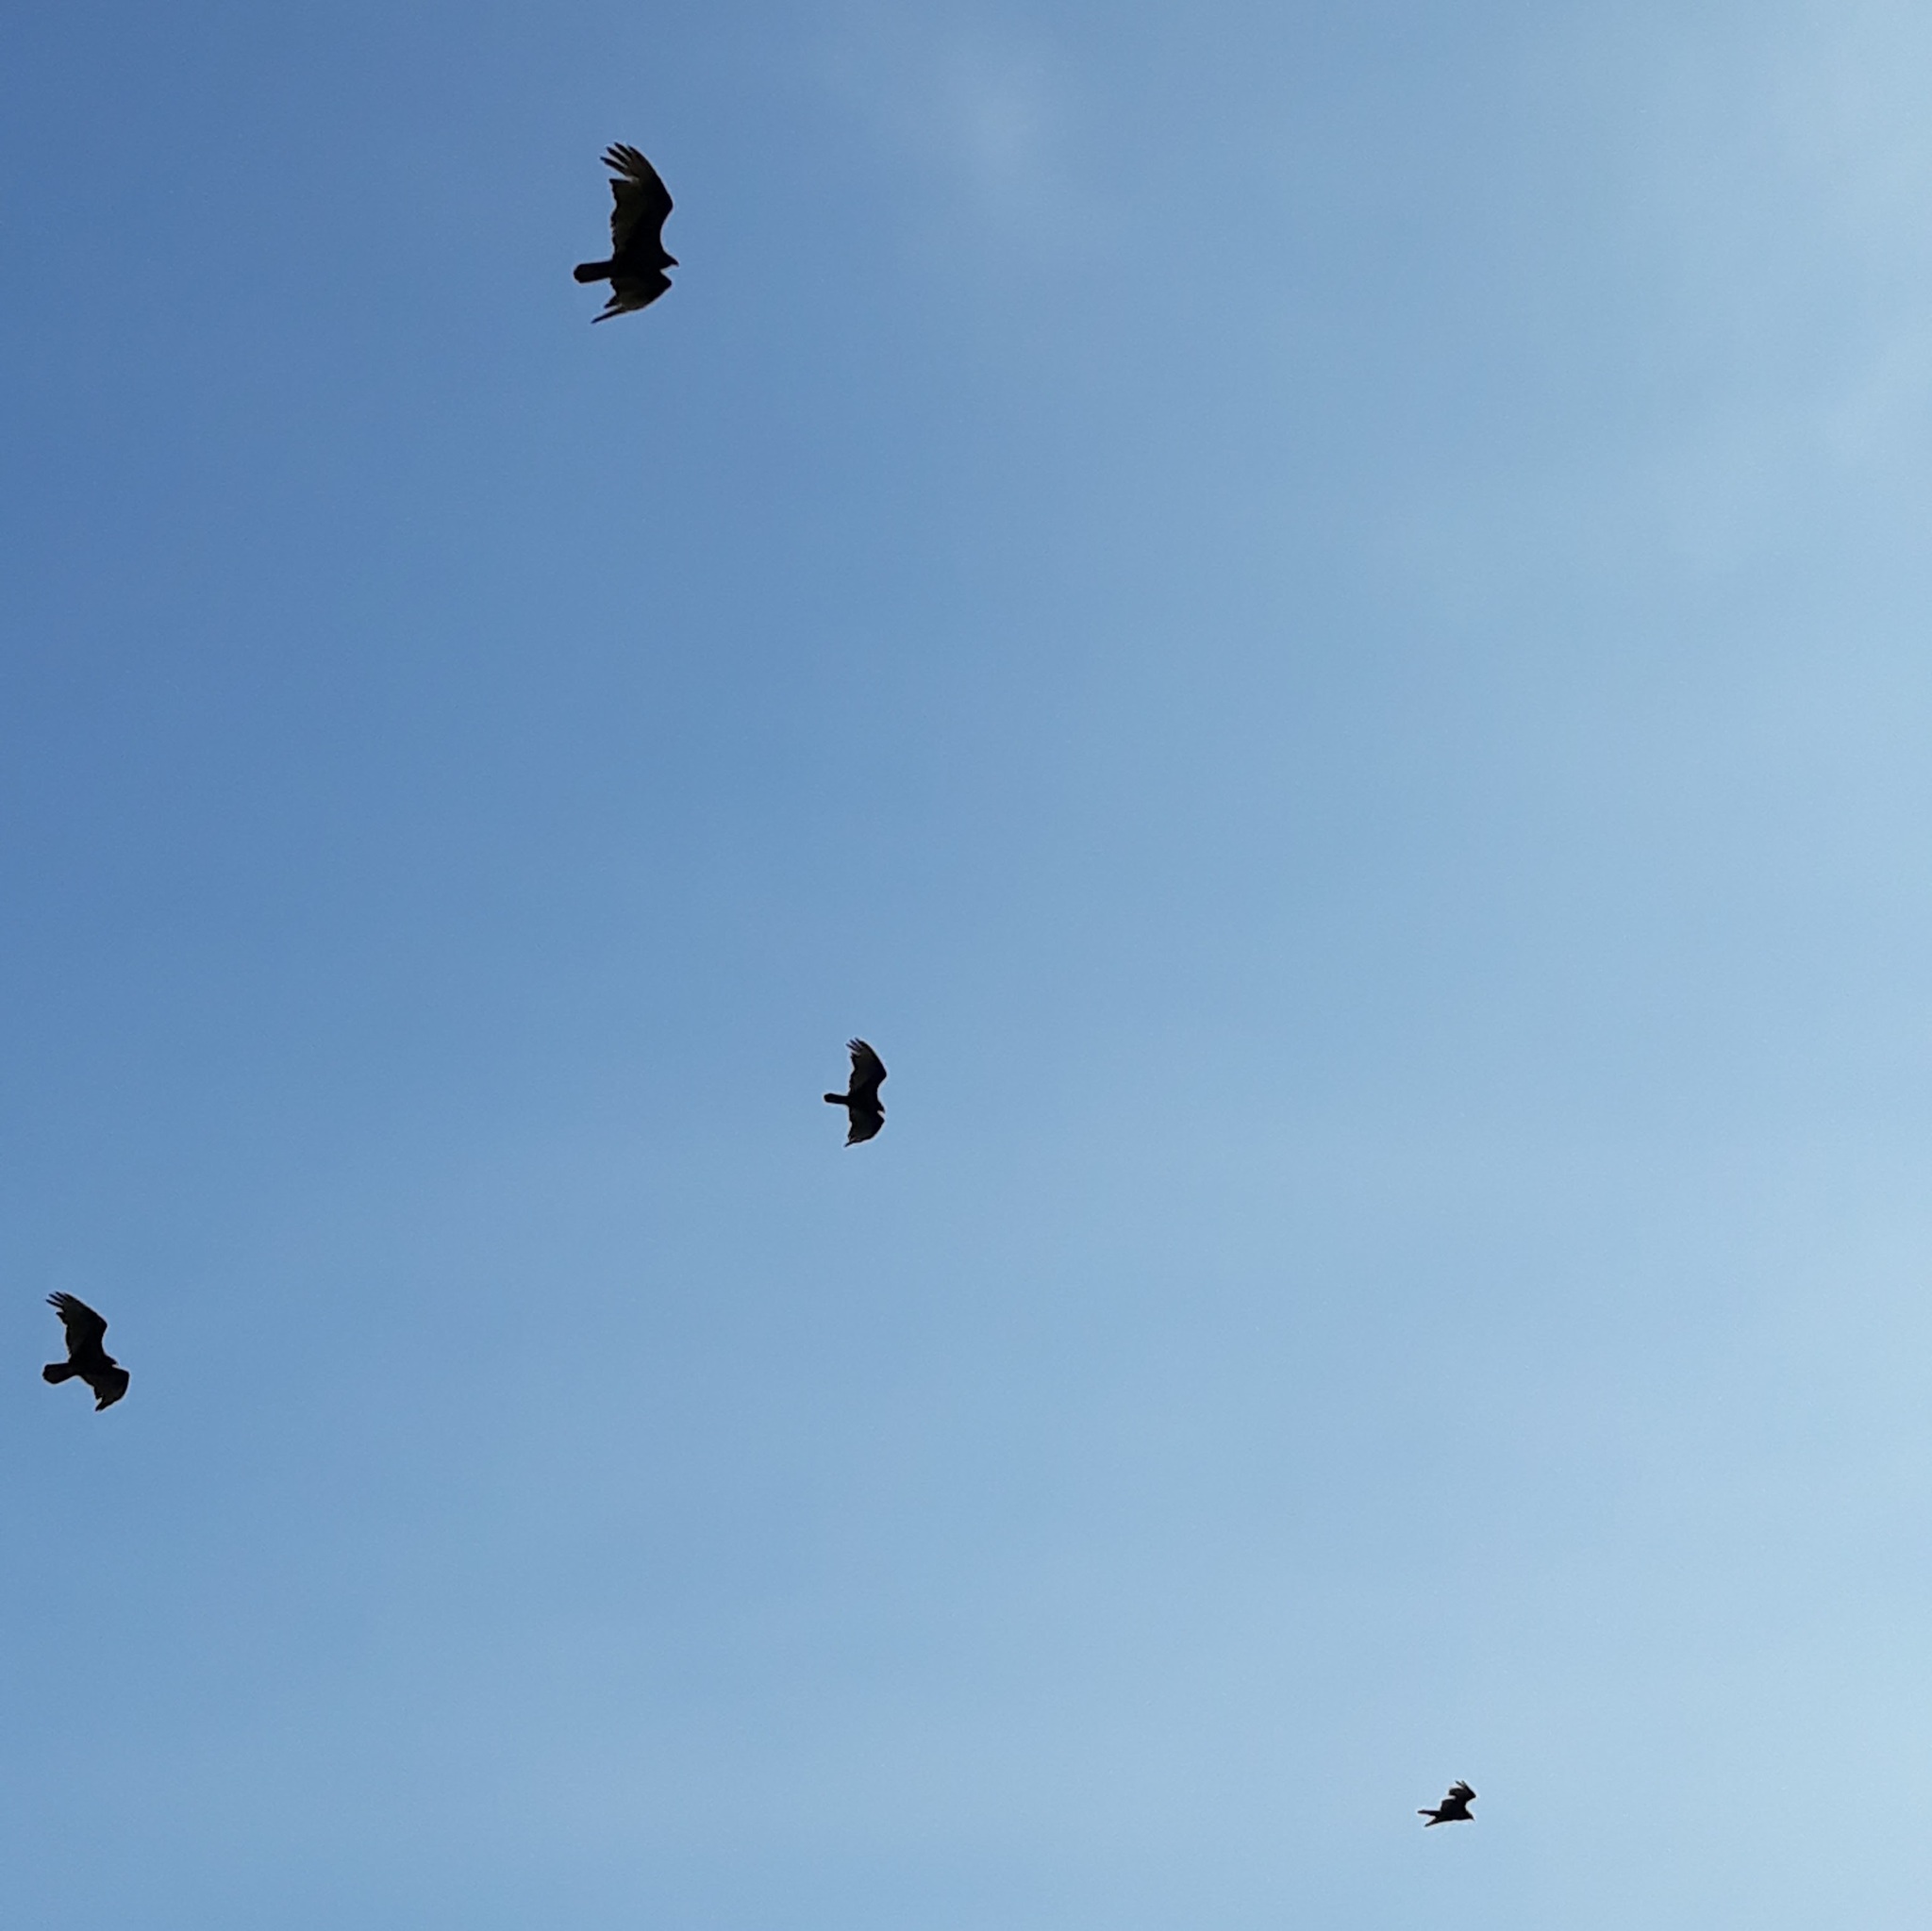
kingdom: Animalia
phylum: Chordata
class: Aves
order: Accipitriformes
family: Cathartidae
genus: Cathartes
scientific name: Cathartes aura
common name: Turkey vulture
